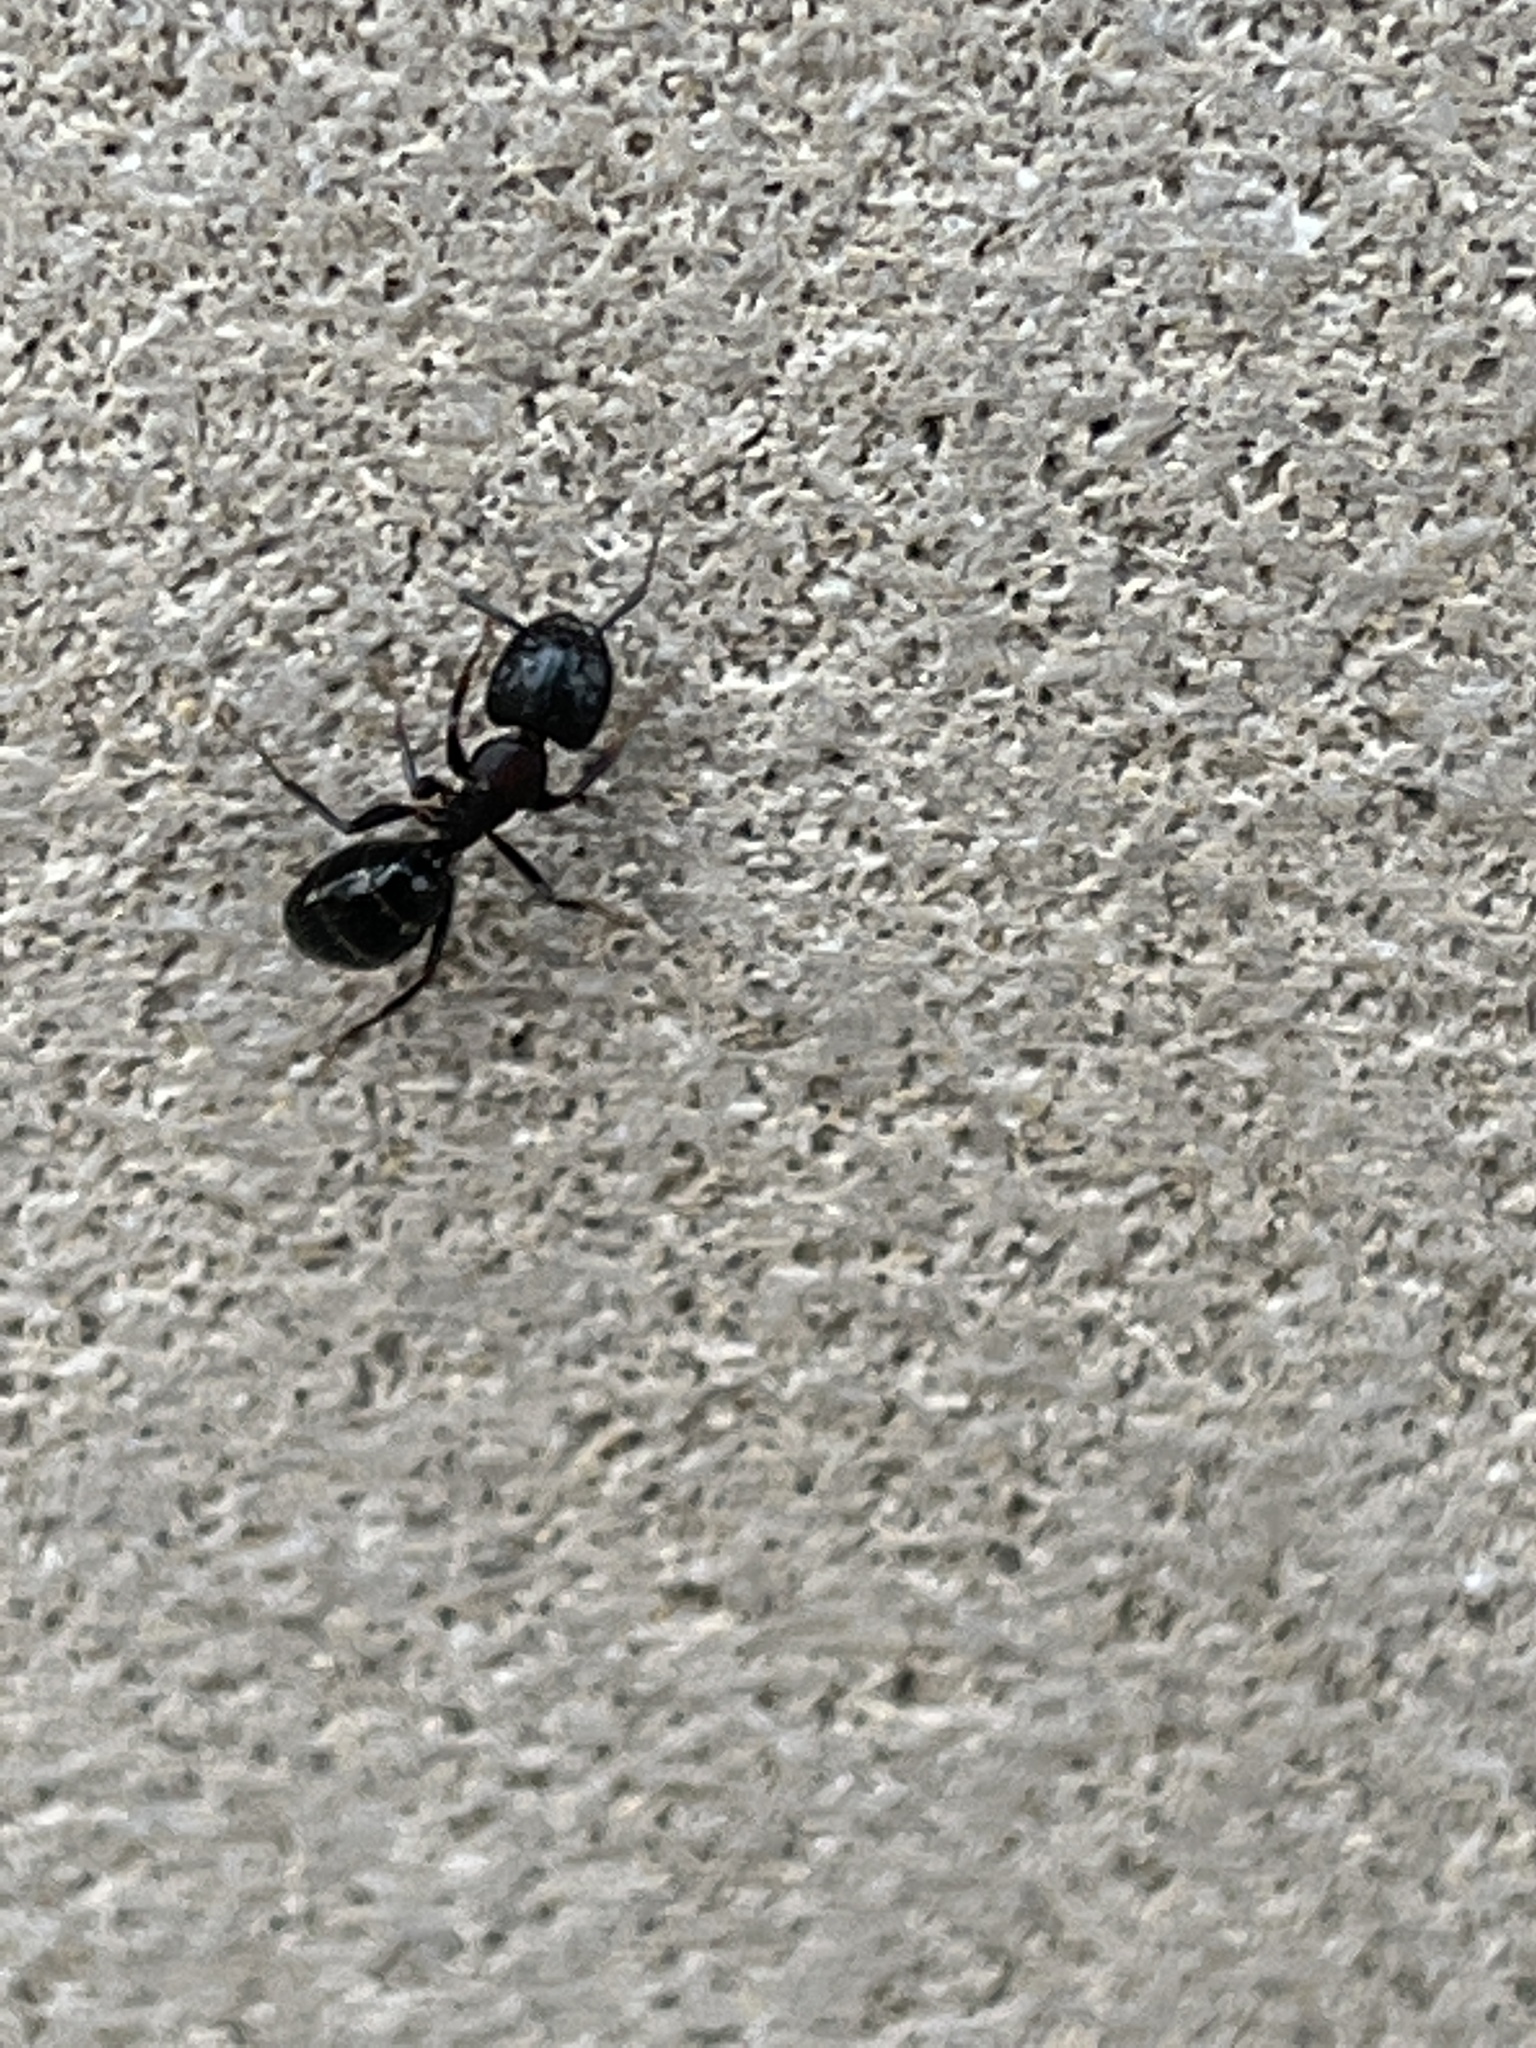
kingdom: Animalia
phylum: Arthropoda
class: Insecta
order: Hymenoptera
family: Formicidae
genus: Camponotus
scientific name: Camponotus pennsylvanicus
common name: Black carpenter ant
